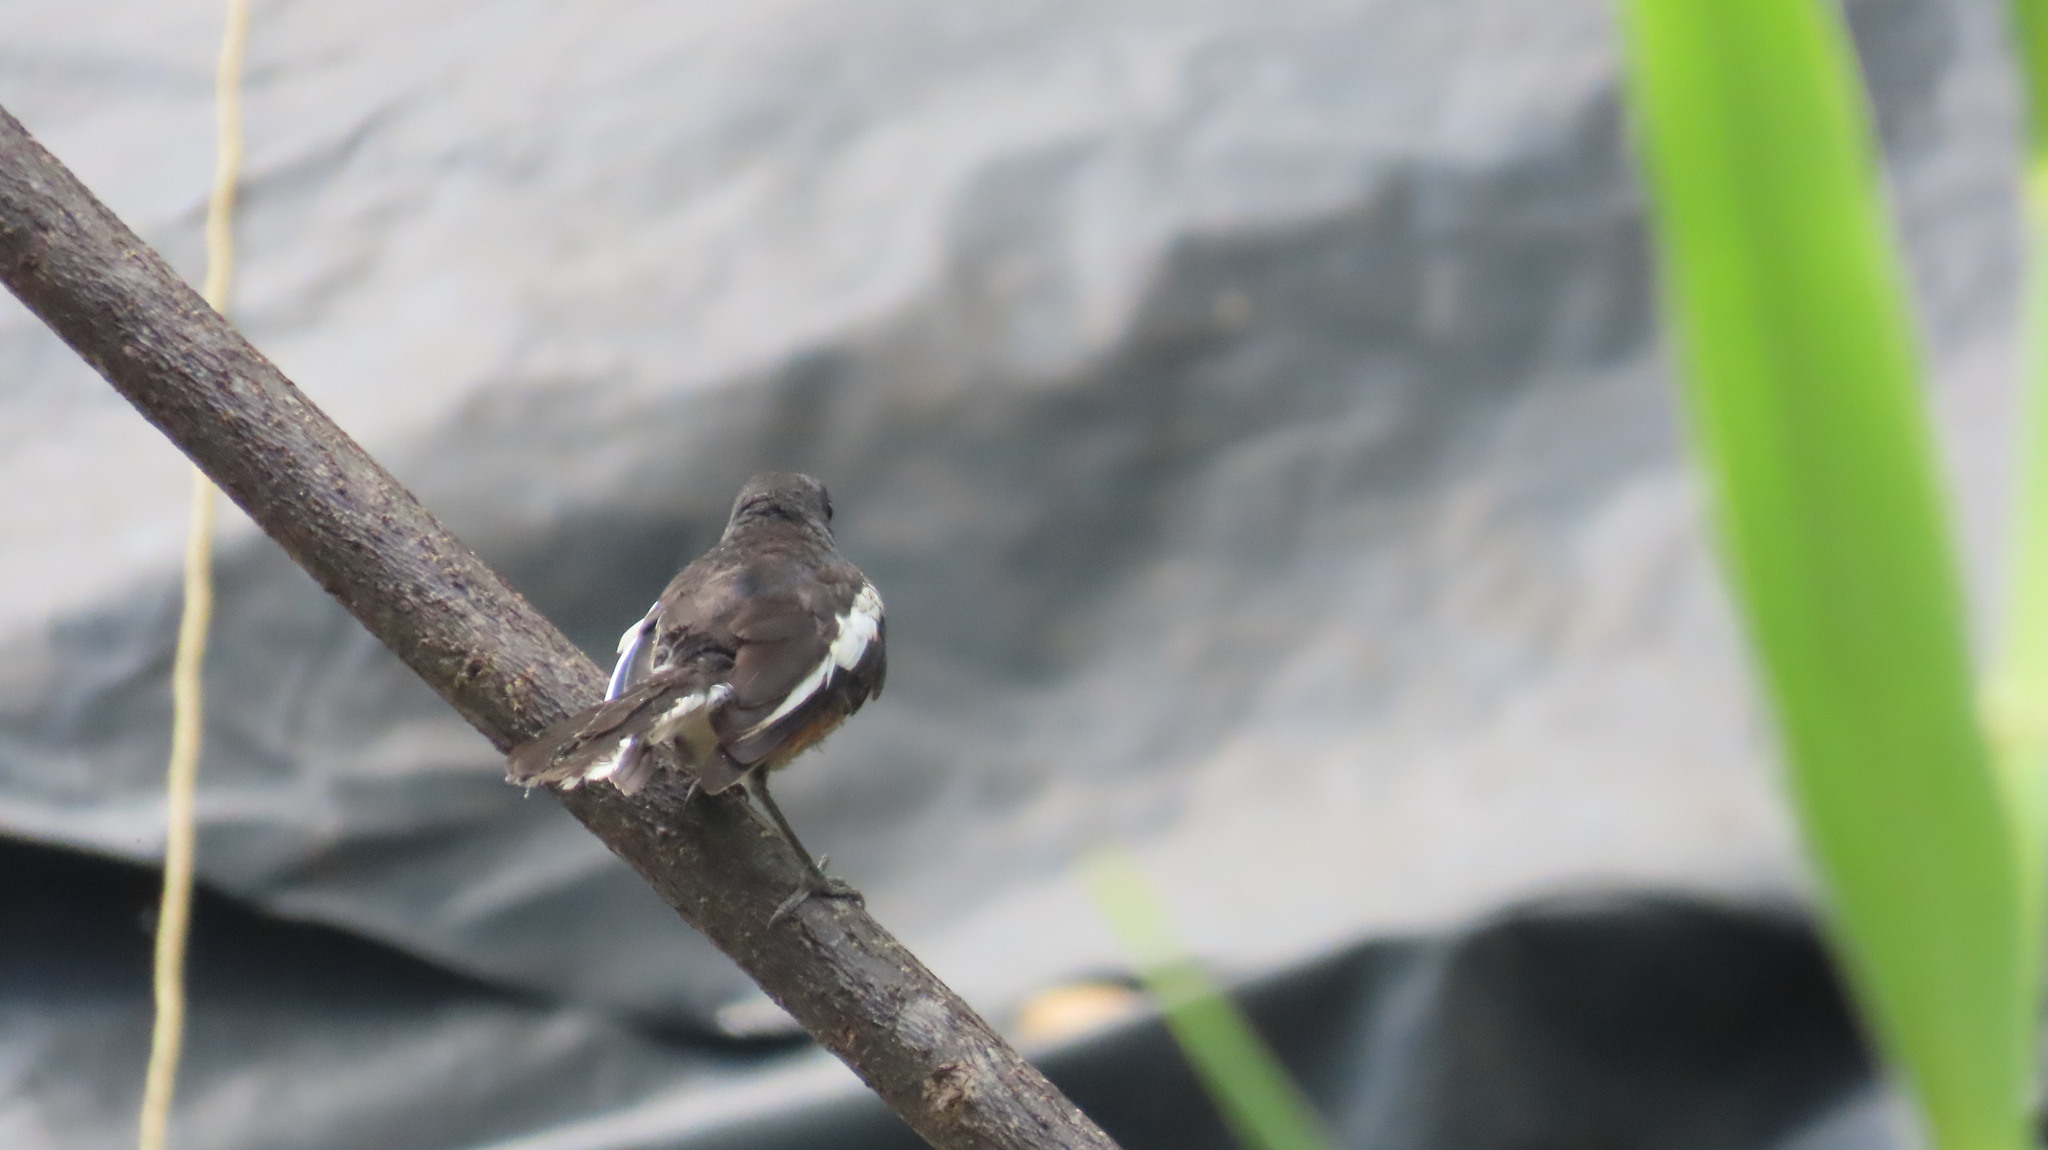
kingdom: Animalia
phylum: Chordata
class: Aves
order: Passeriformes
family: Muscicapidae
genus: Copsychus
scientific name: Copsychus saularis
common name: Oriental magpie-robin
